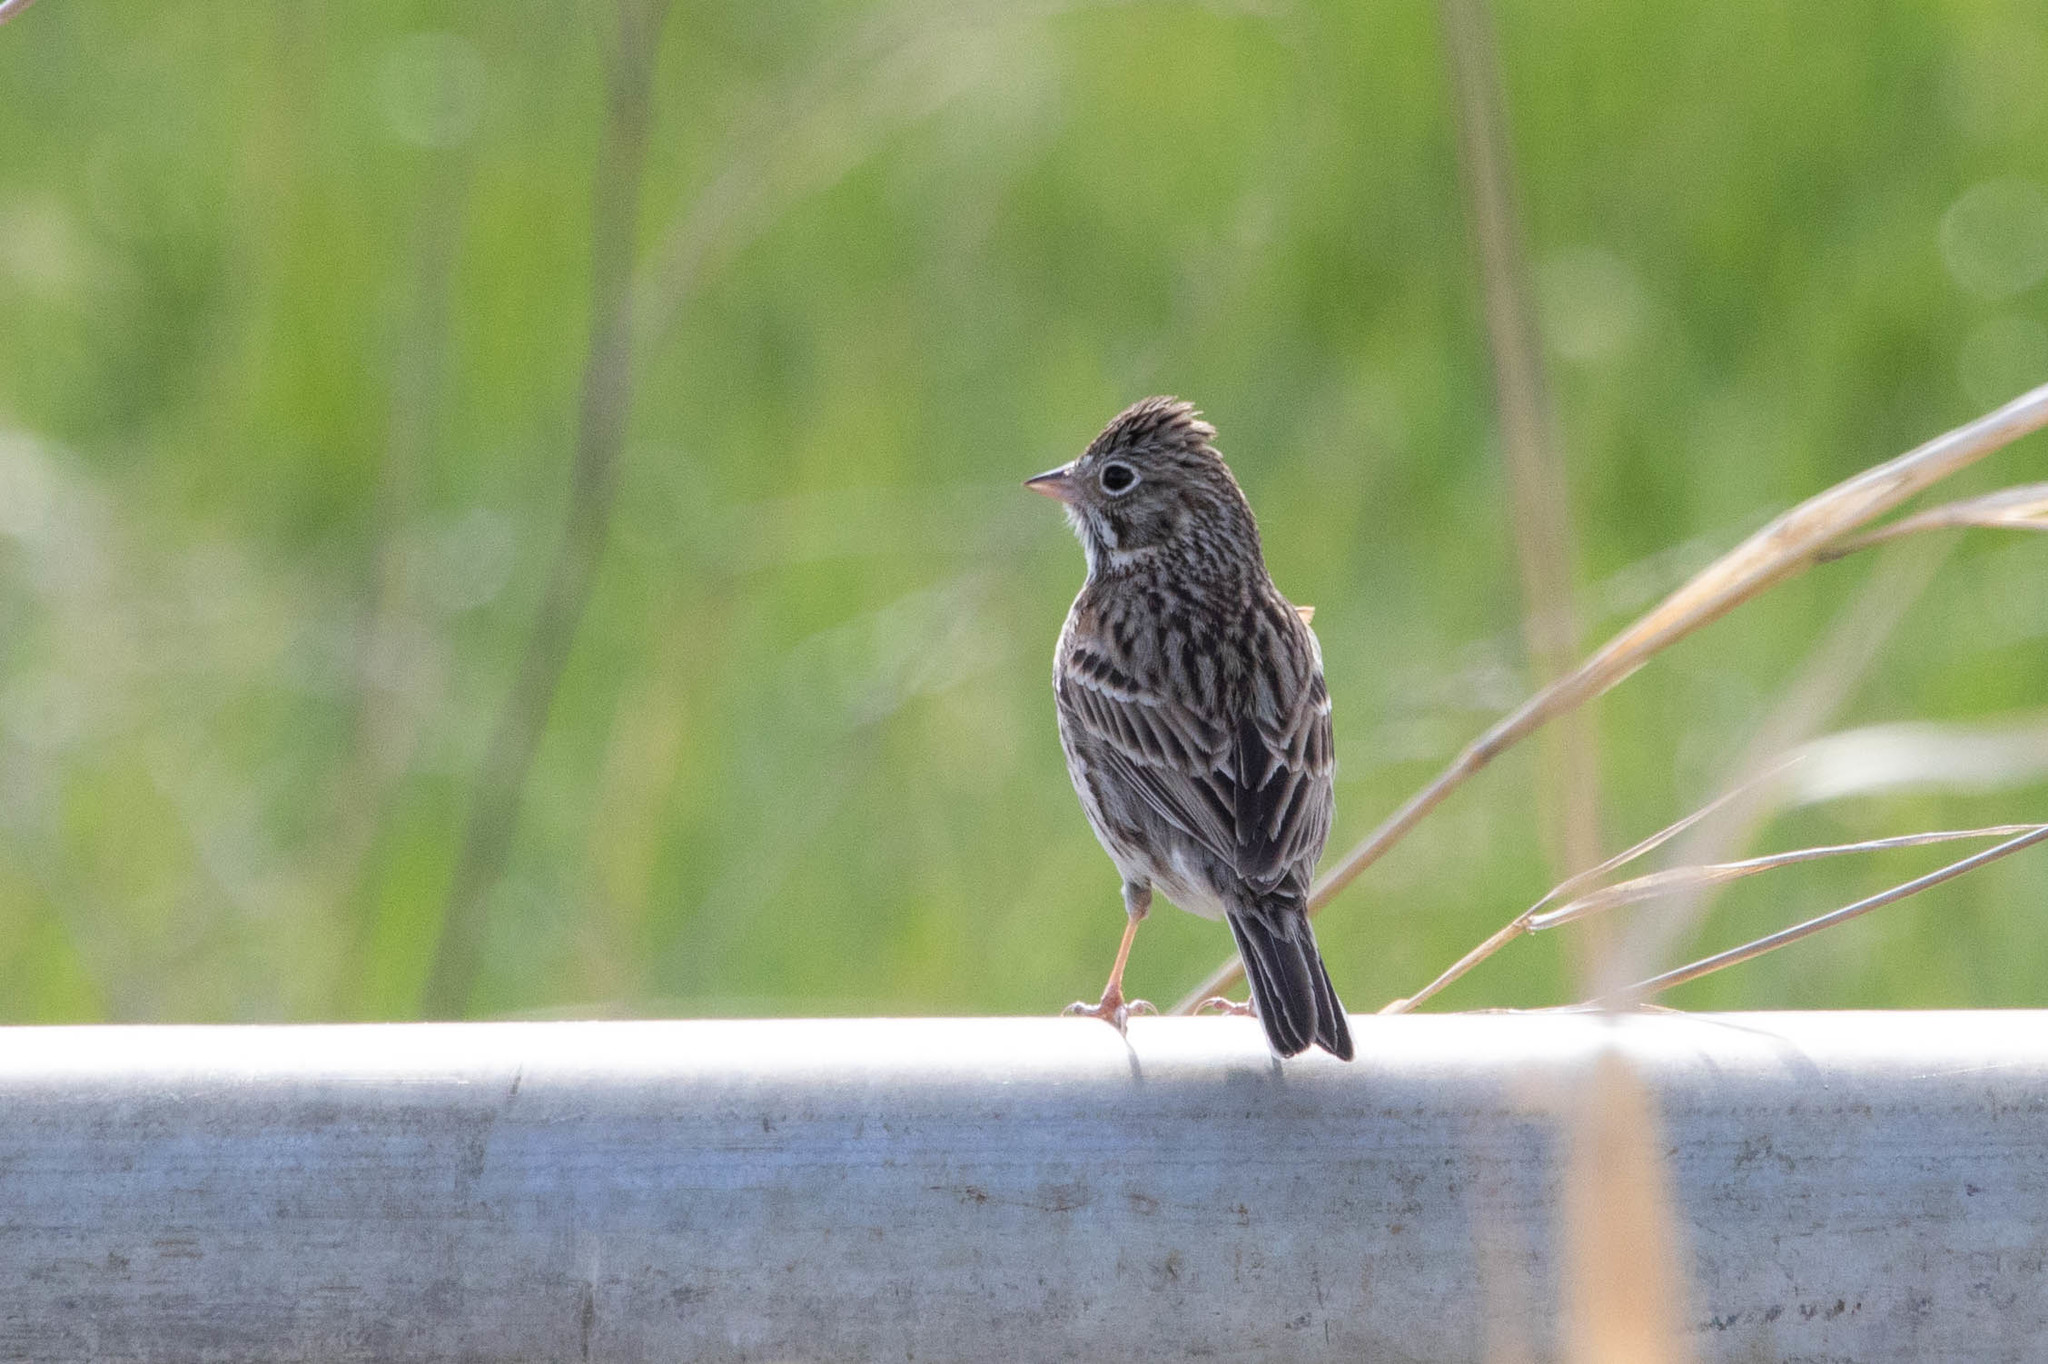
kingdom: Animalia
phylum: Chordata
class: Aves
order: Passeriformes
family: Passerellidae
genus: Pooecetes
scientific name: Pooecetes gramineus
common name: Vesper sparrow
